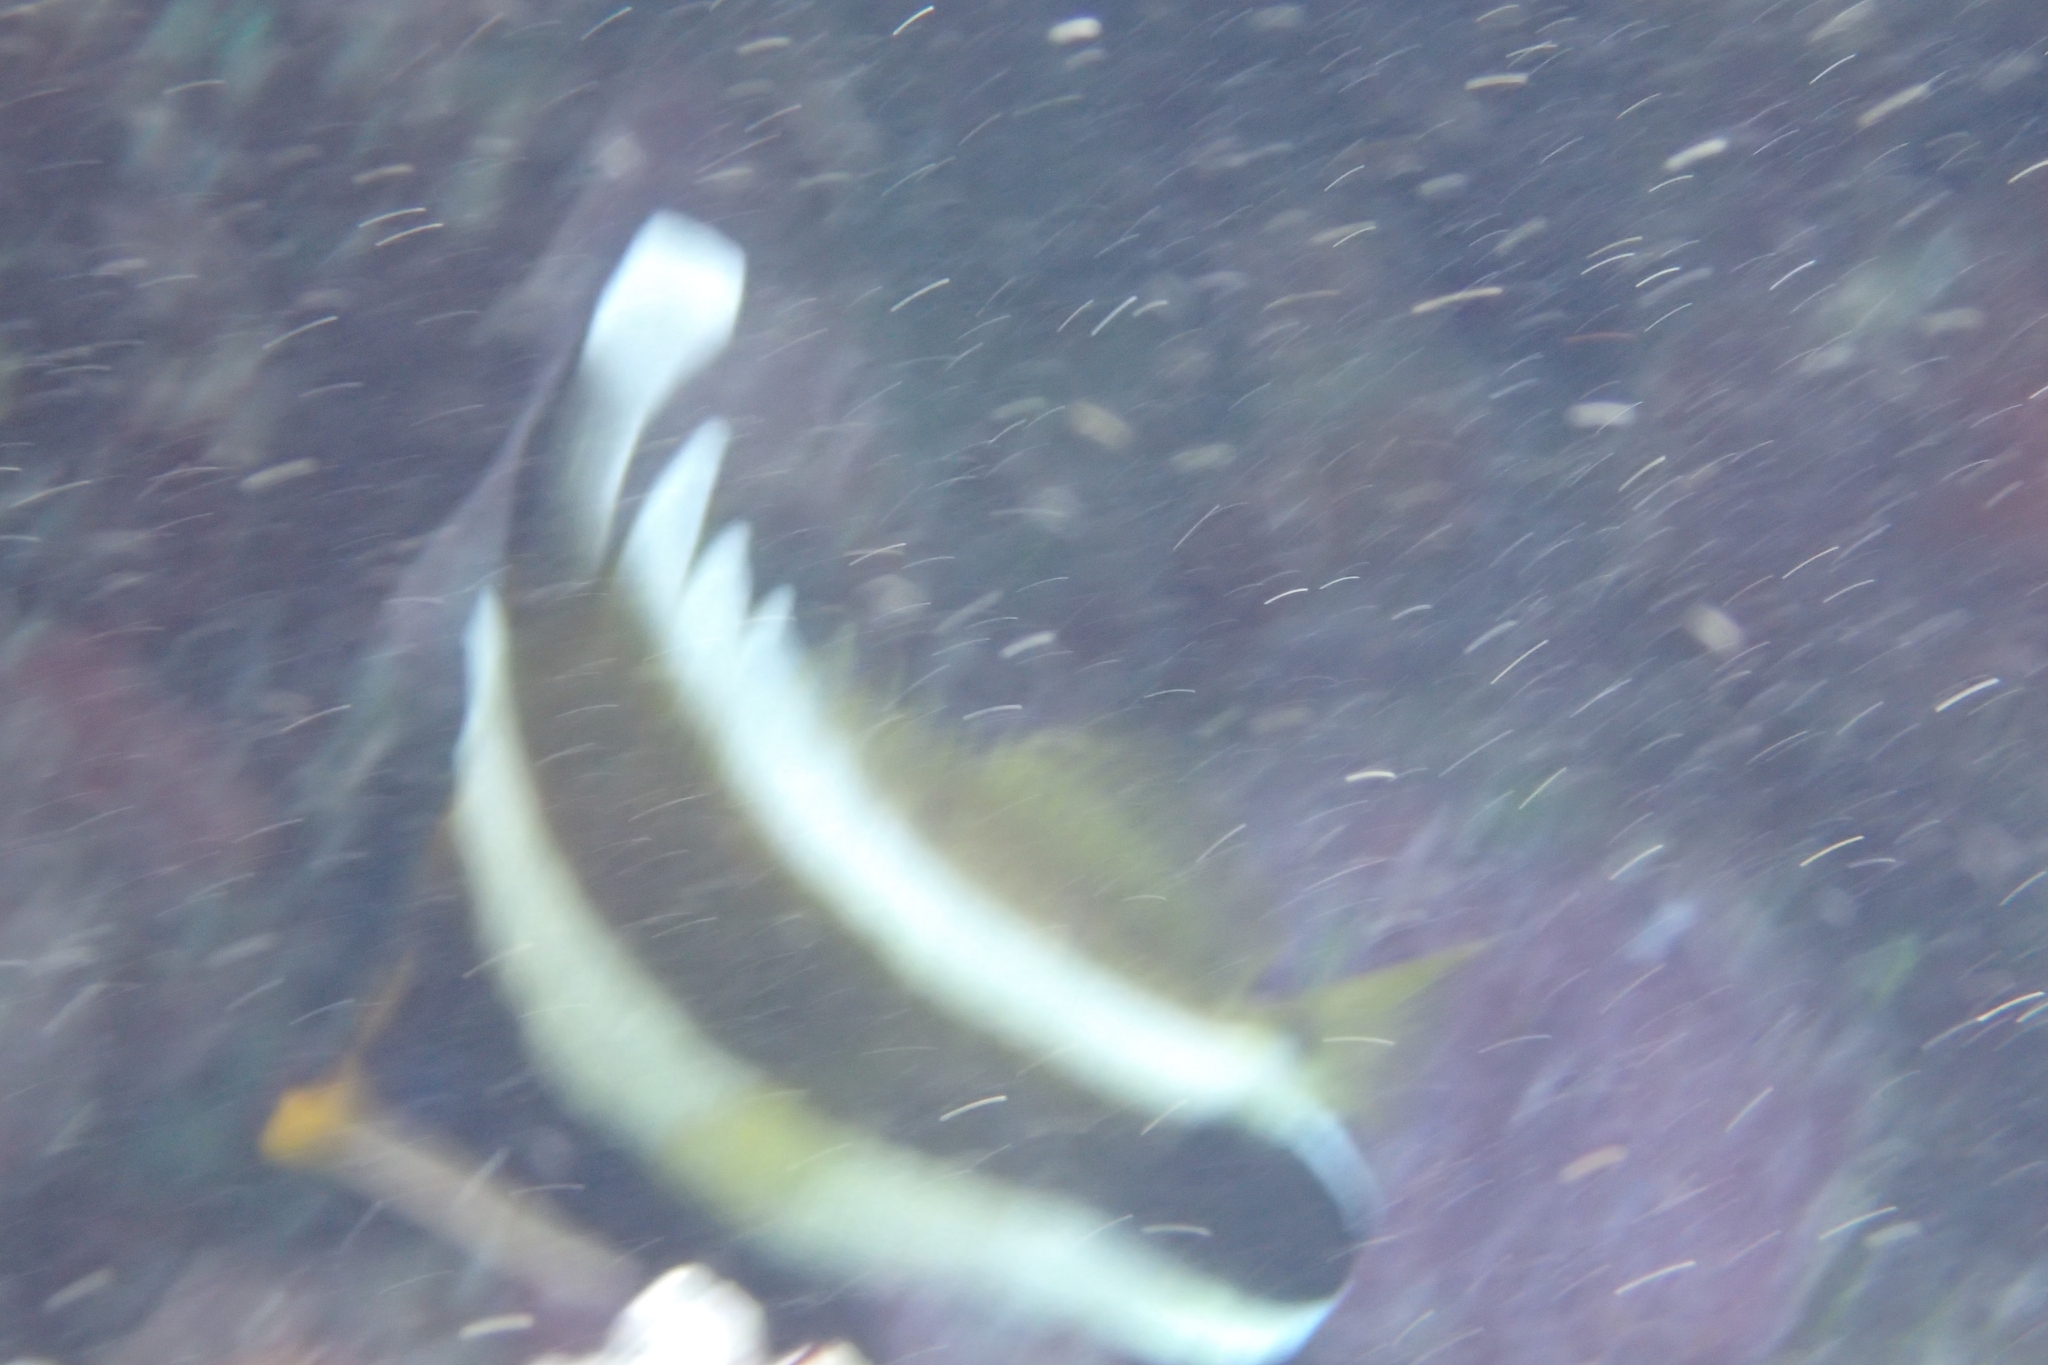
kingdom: Animalia
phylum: Chordata
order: Perciformes
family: Chaetodontidae
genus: Heniochus
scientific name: Heniochus chrysostomus
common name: Horned bannerfish
